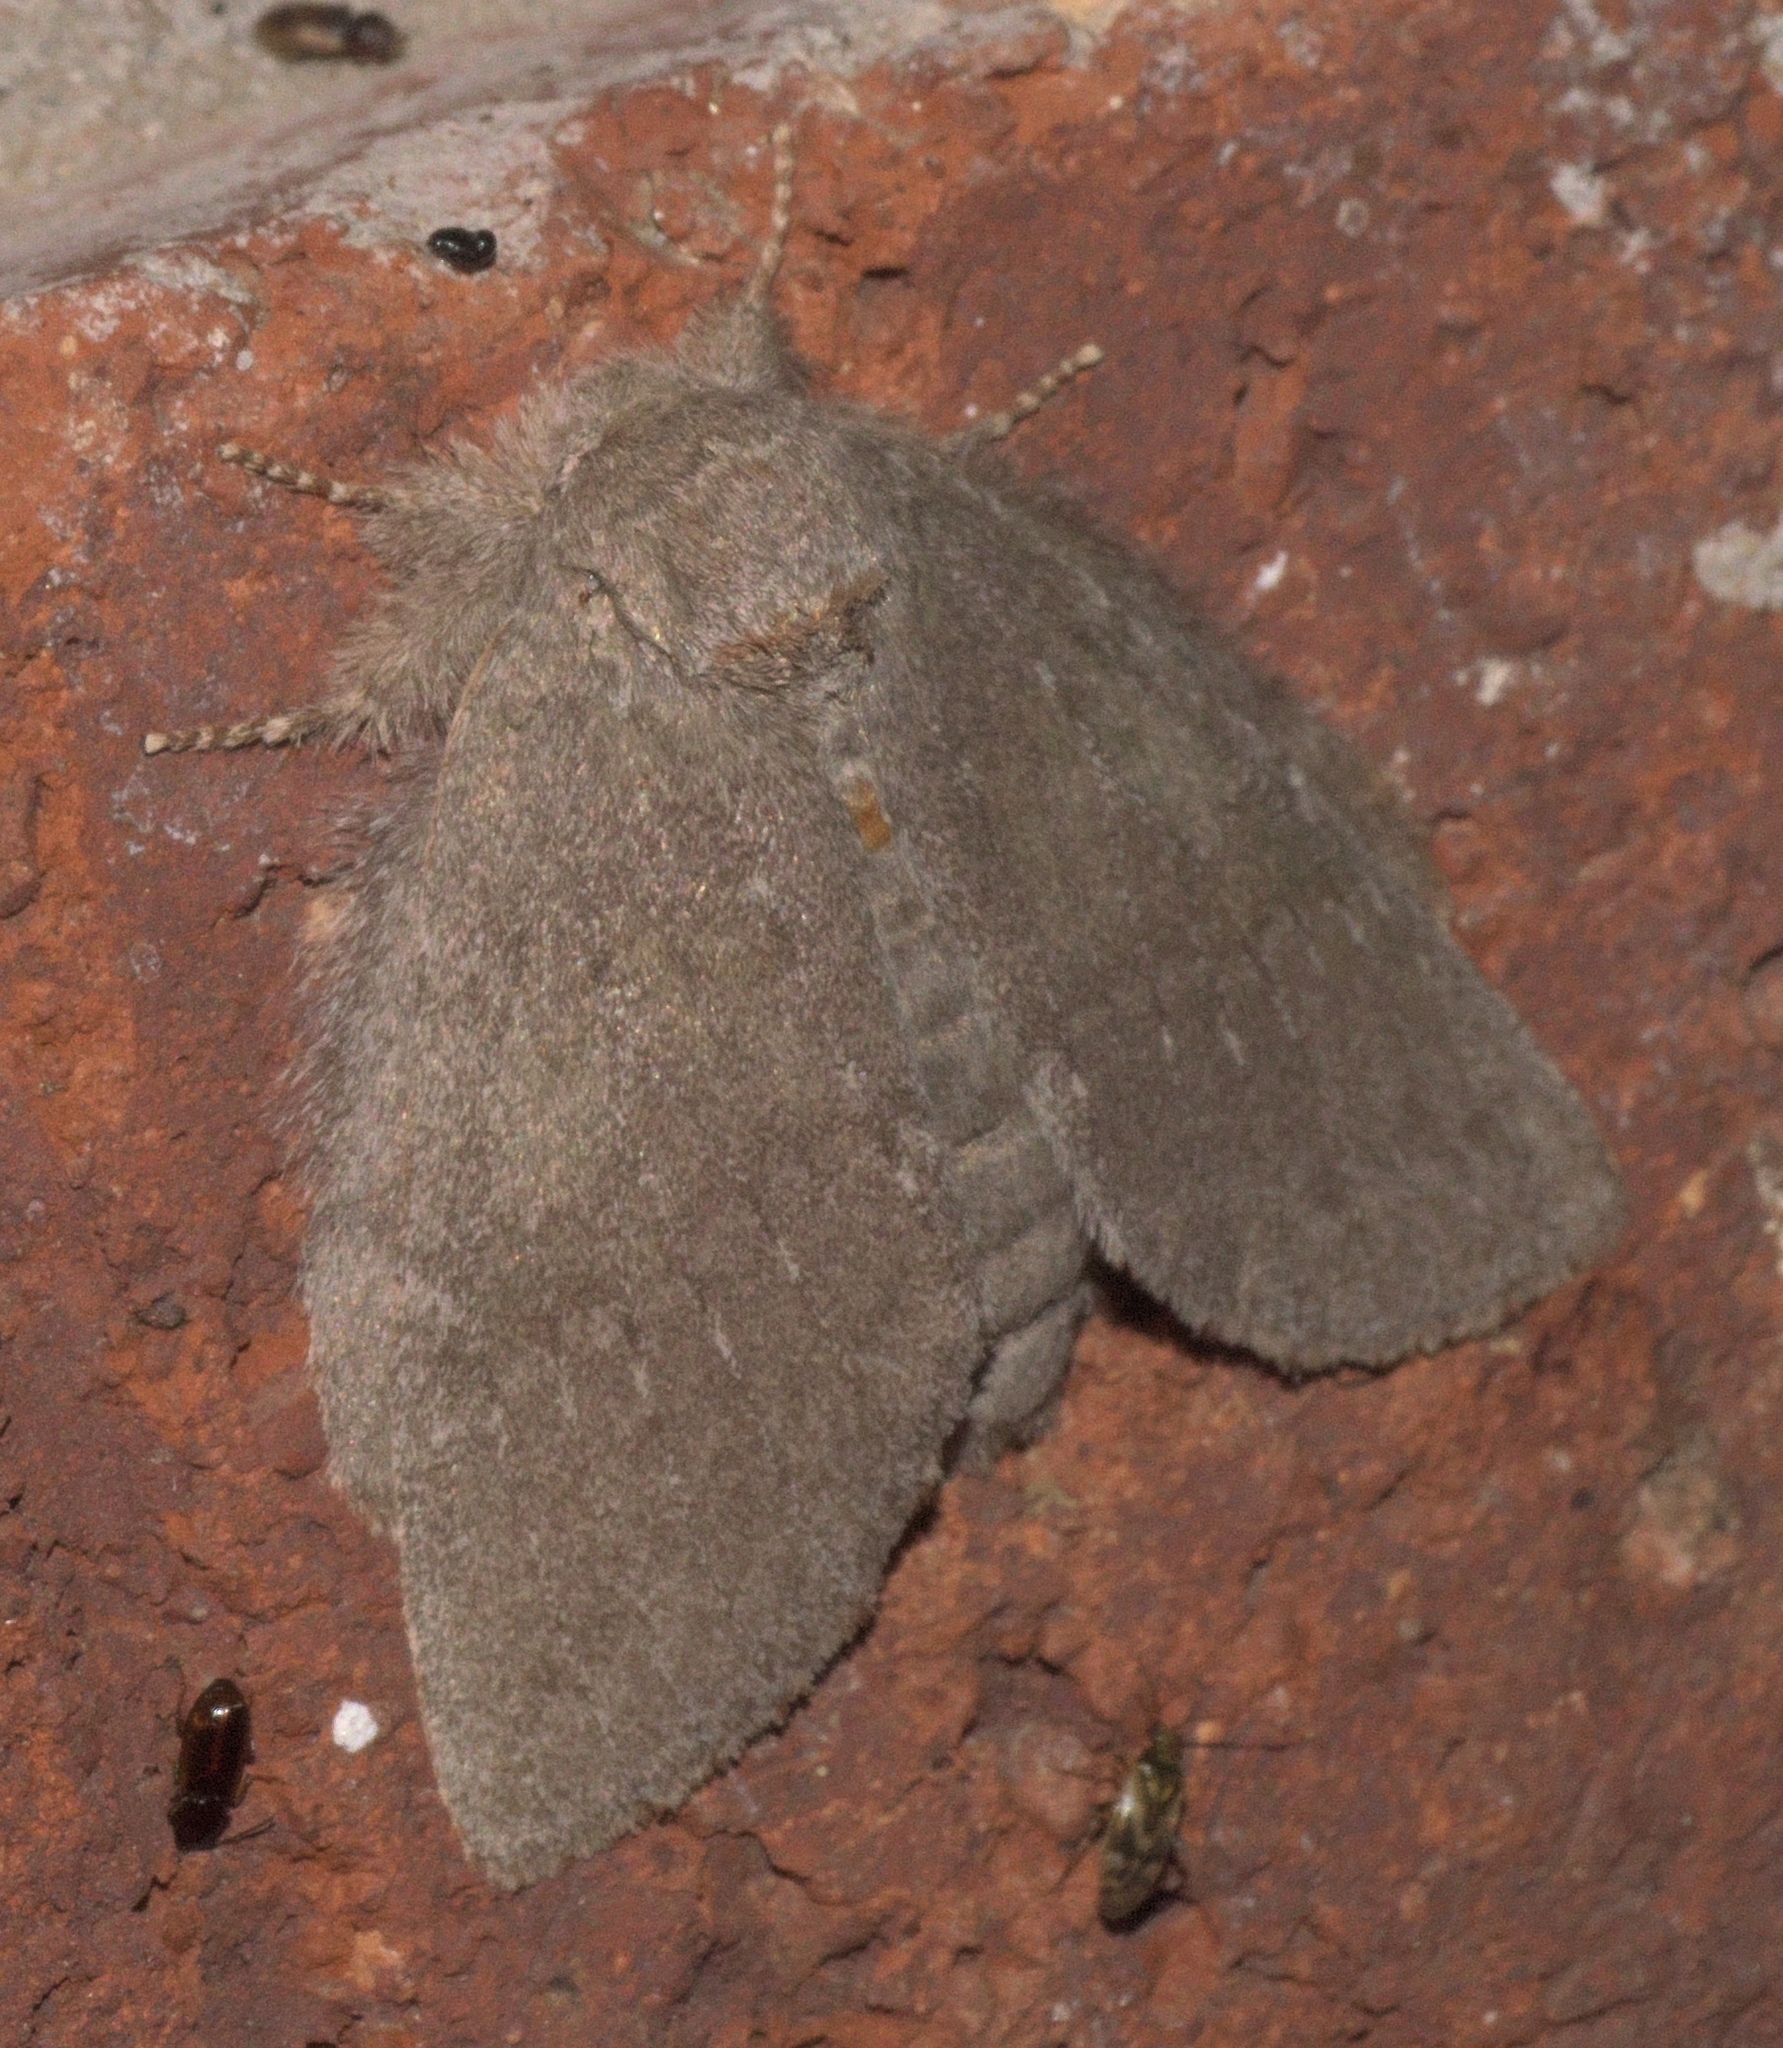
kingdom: Animalia
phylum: Arthropoda
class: Insecta
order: Lepidoptera
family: Notodontidae
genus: Misogada
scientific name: Misogada unicolor
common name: Drab prominent
